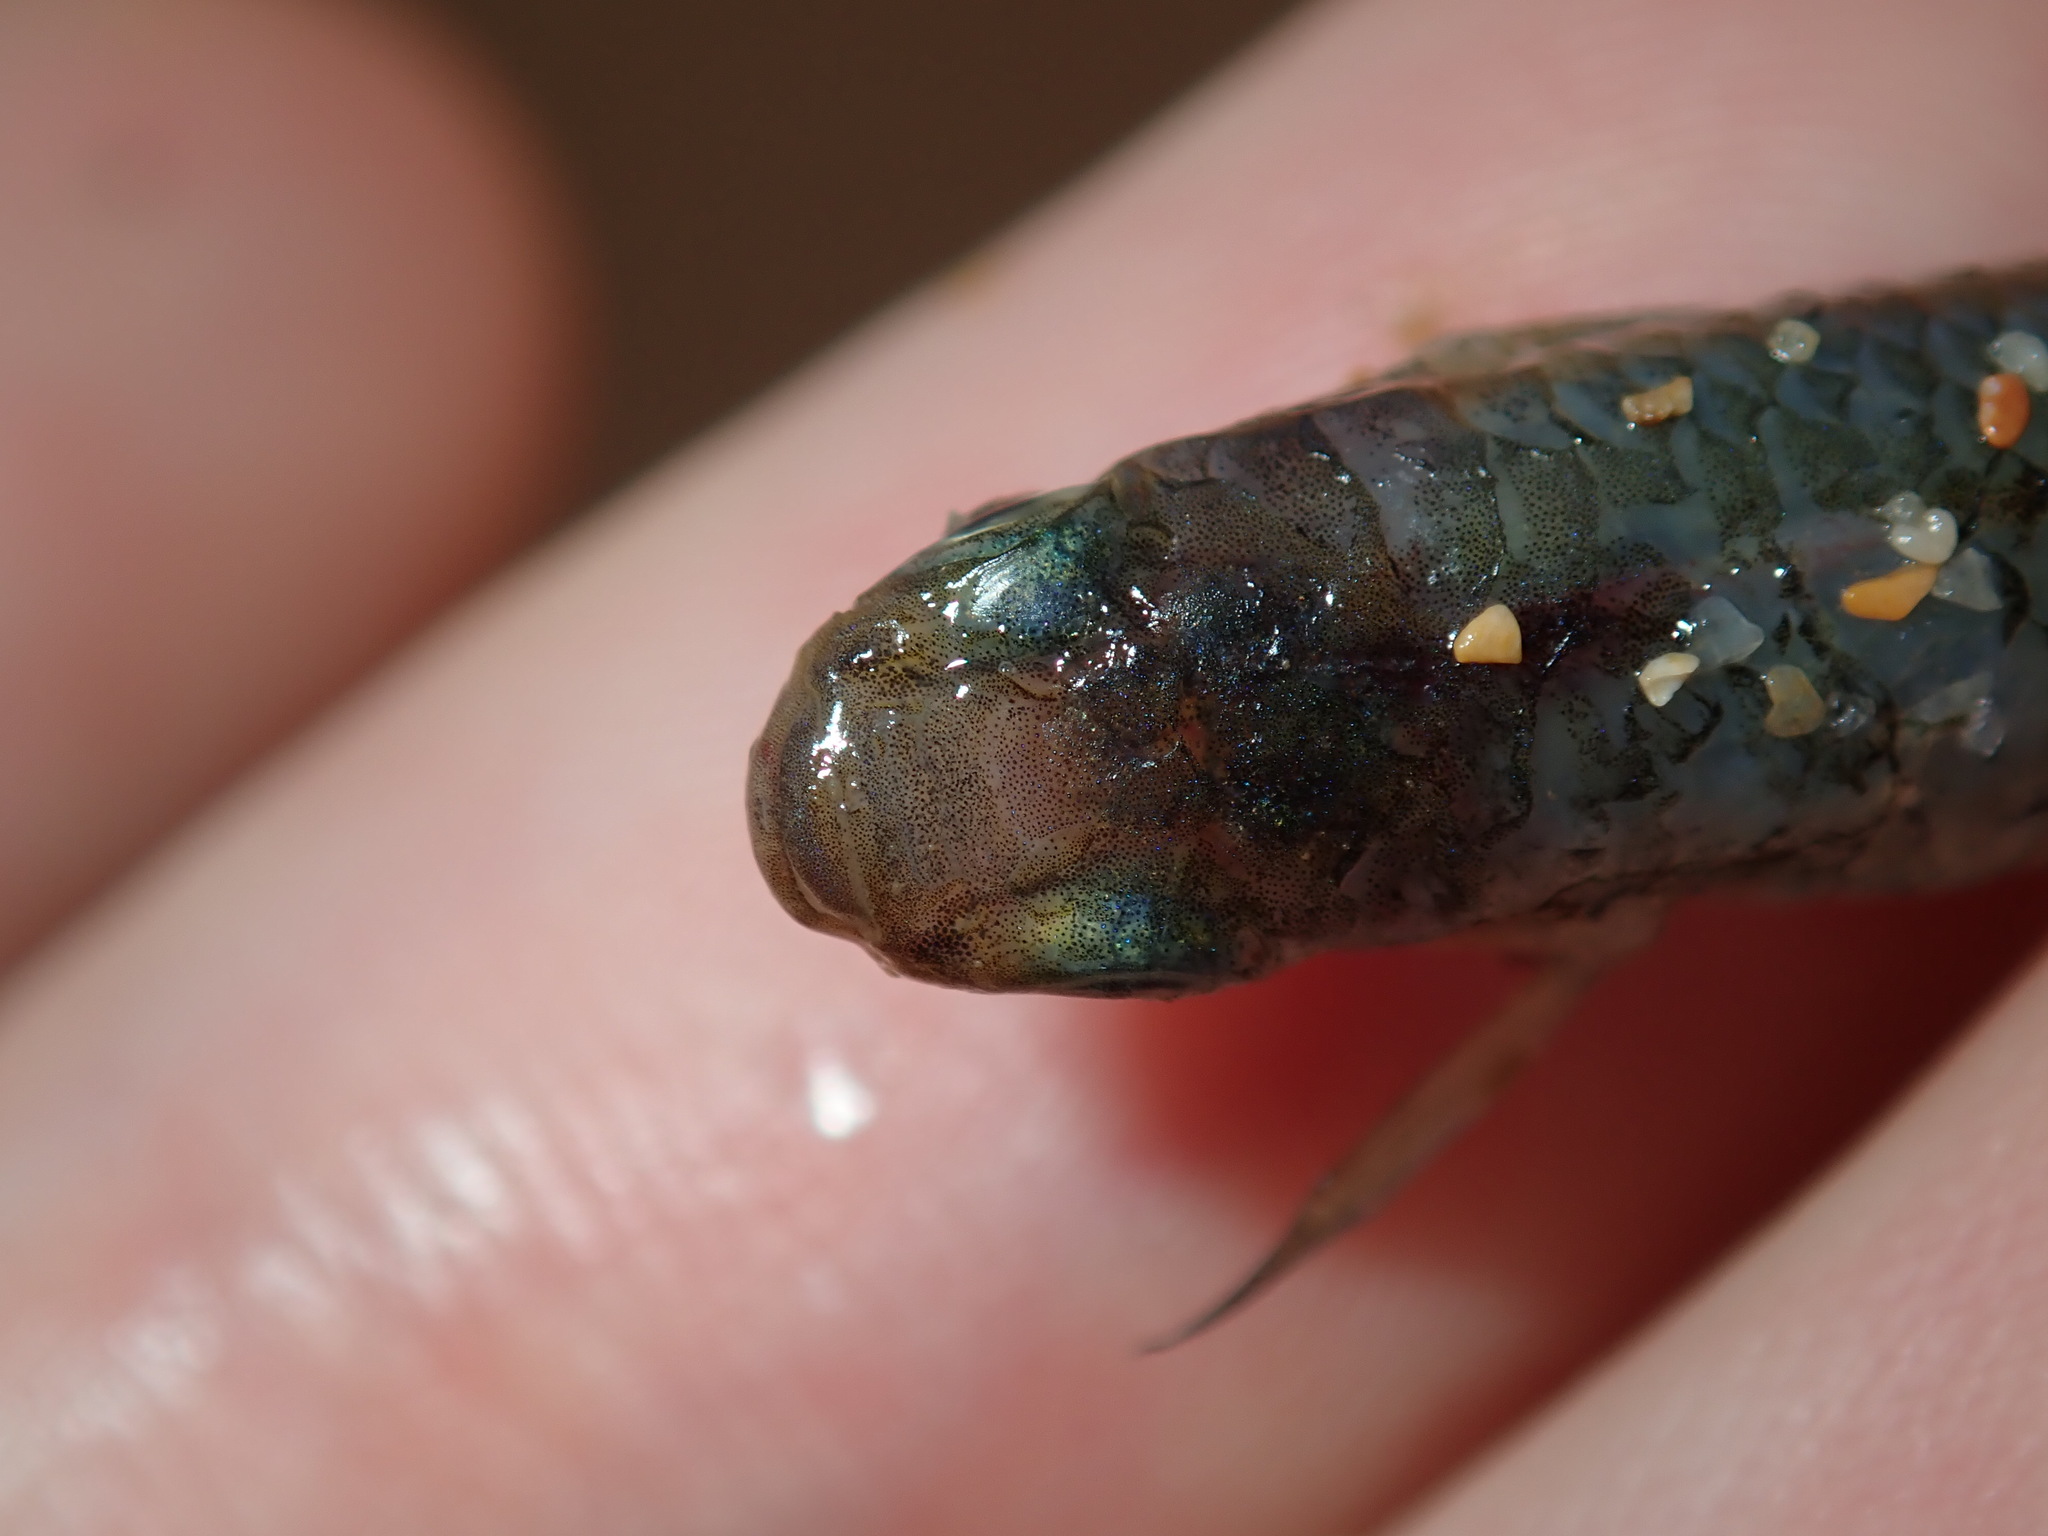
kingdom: Animalia
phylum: Chordata
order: Cyprinodontiformes
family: Poeciliidae
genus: Gambusia
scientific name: Gambusia holbrooki
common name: Eastern mosquitofish
